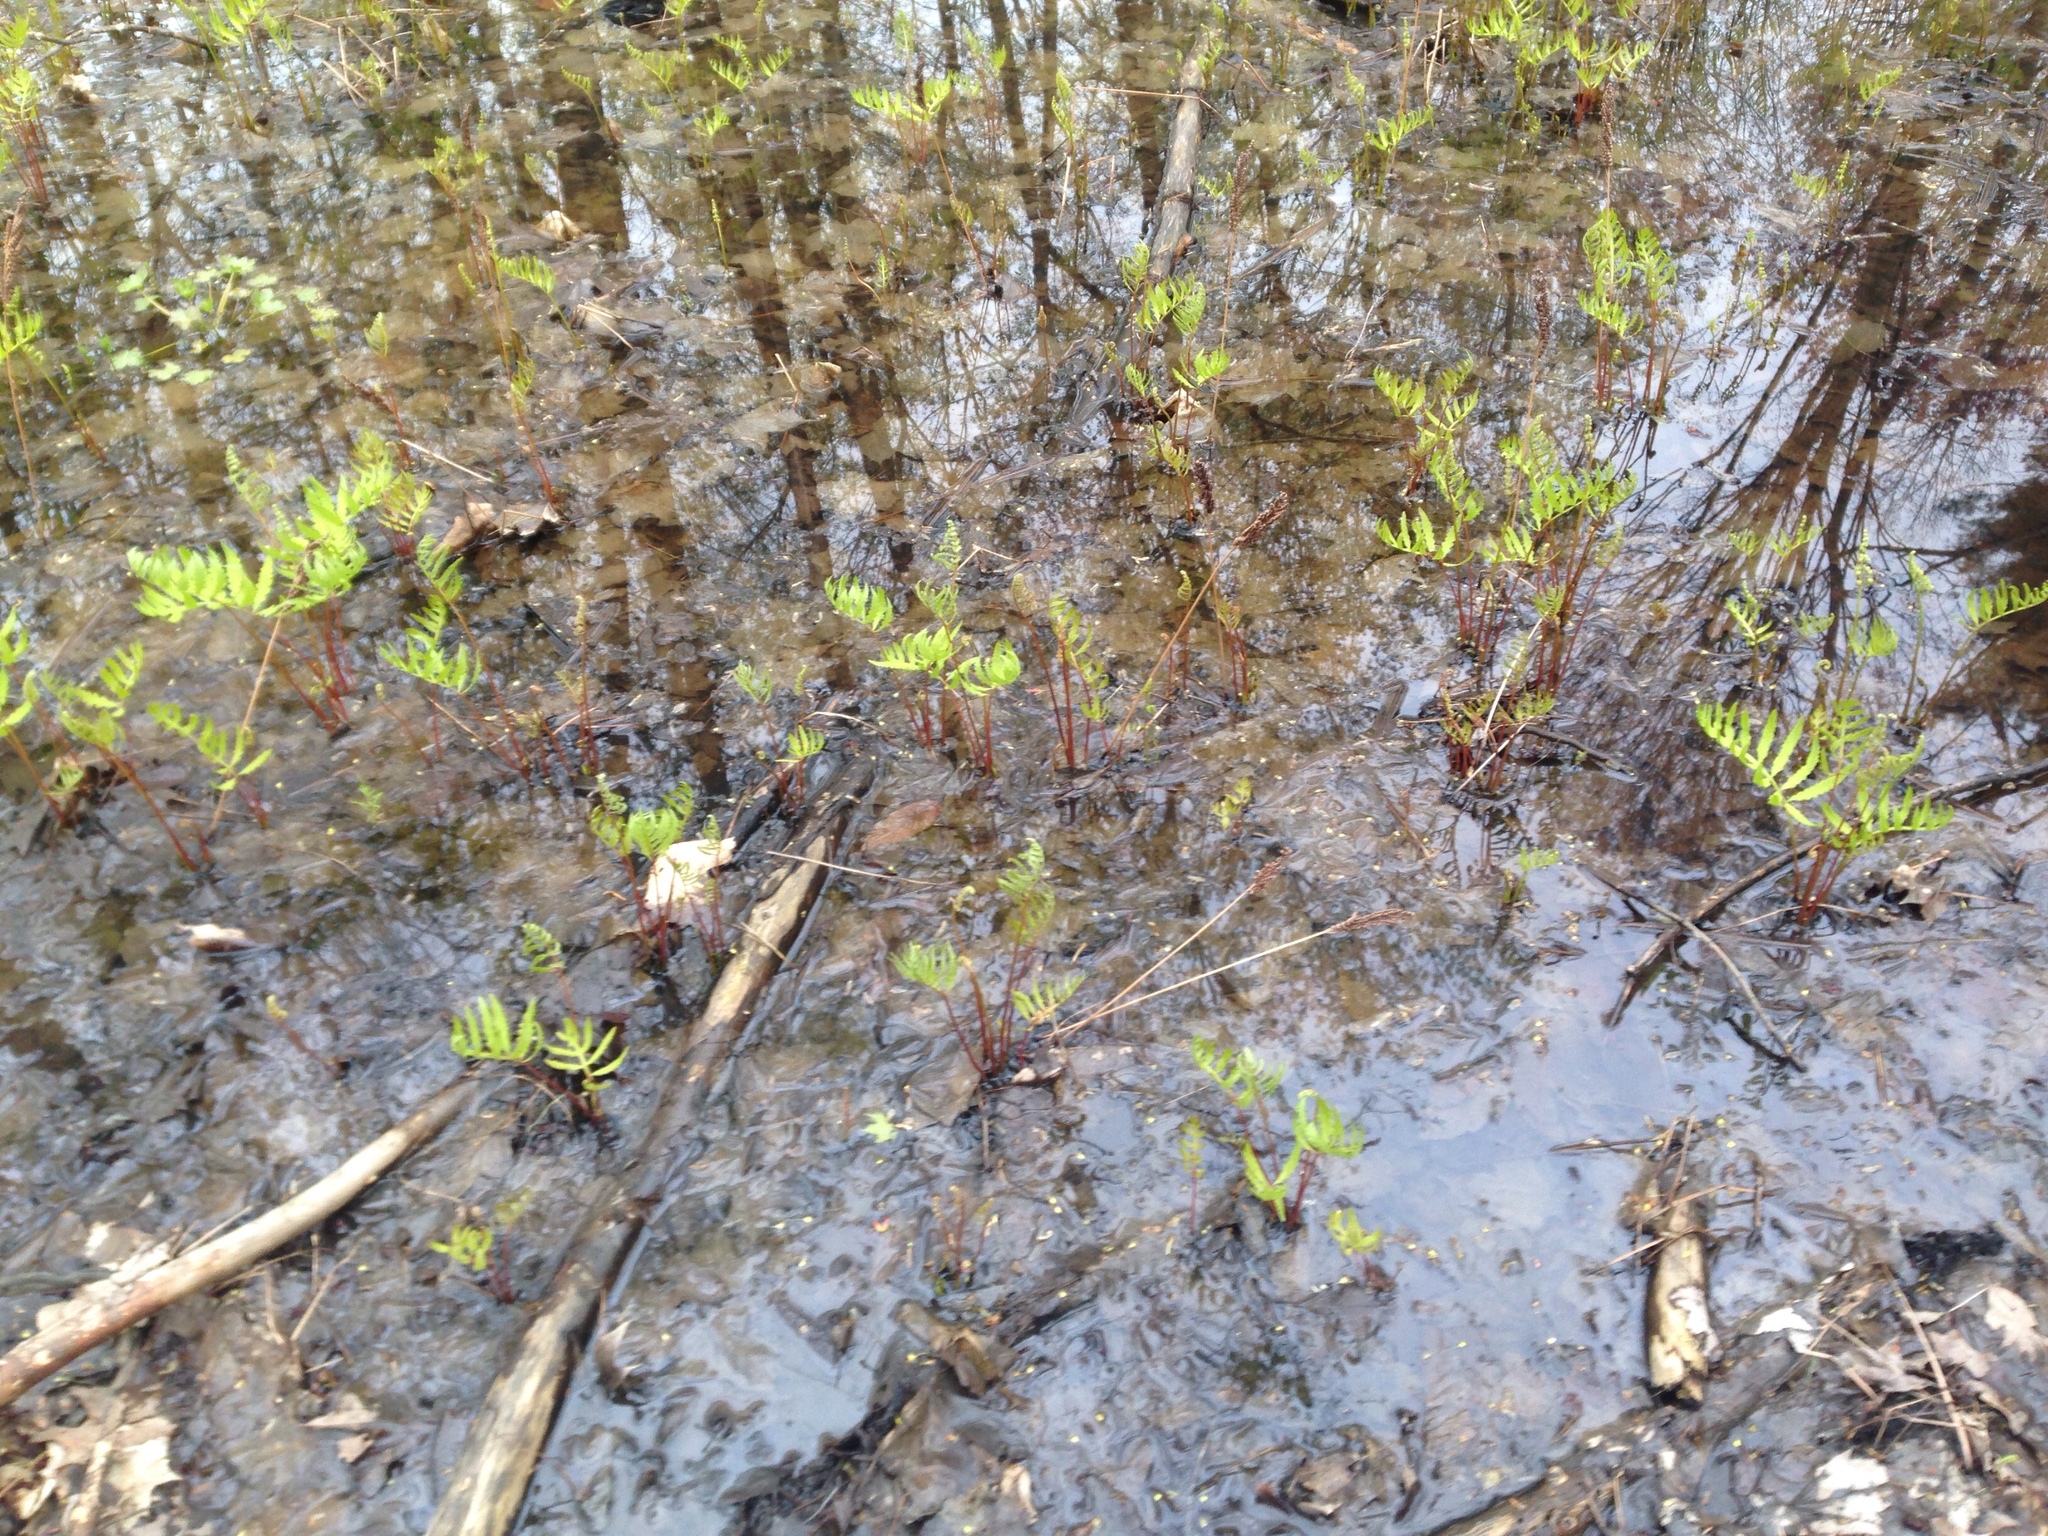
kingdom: Plantae
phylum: Tracheophyta
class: Polypodiopsida
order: Polypodiales
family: Onocleaceae
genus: Onoclea
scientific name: Onoclea sensibilis
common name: Sensitive fern
